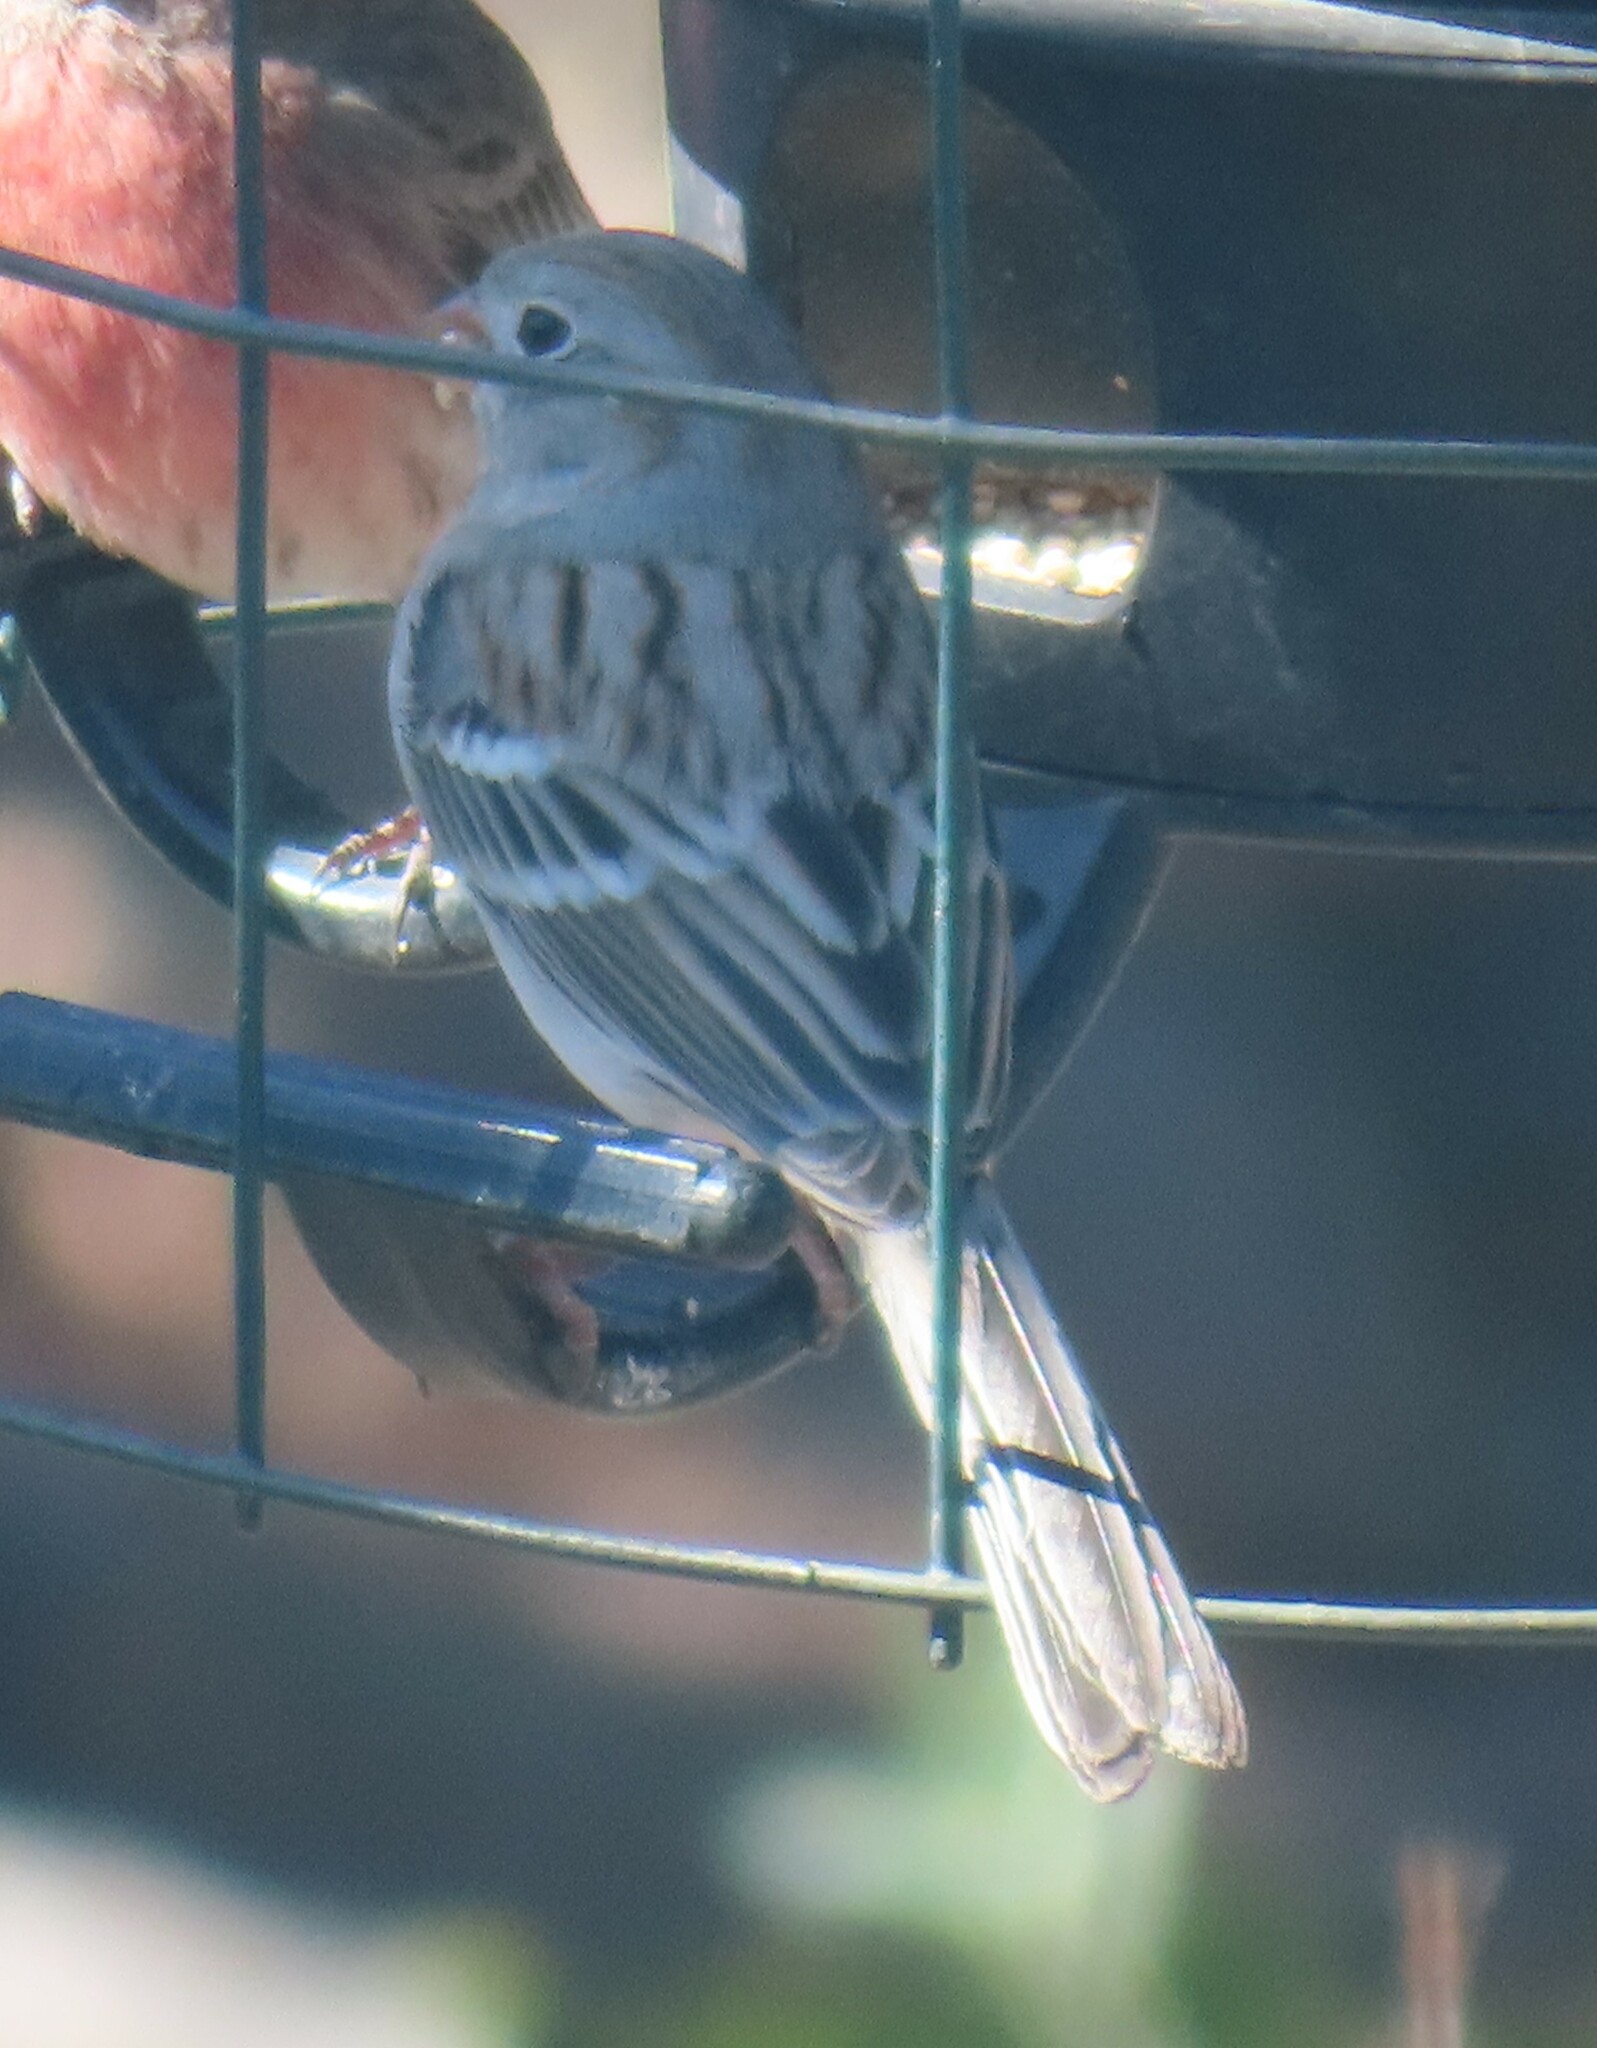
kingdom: Animalia
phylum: Chordata
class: Aves
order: Passeriformes
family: Passerellidae
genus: Spizella
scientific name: Spizella pusilla
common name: Field sparrow
